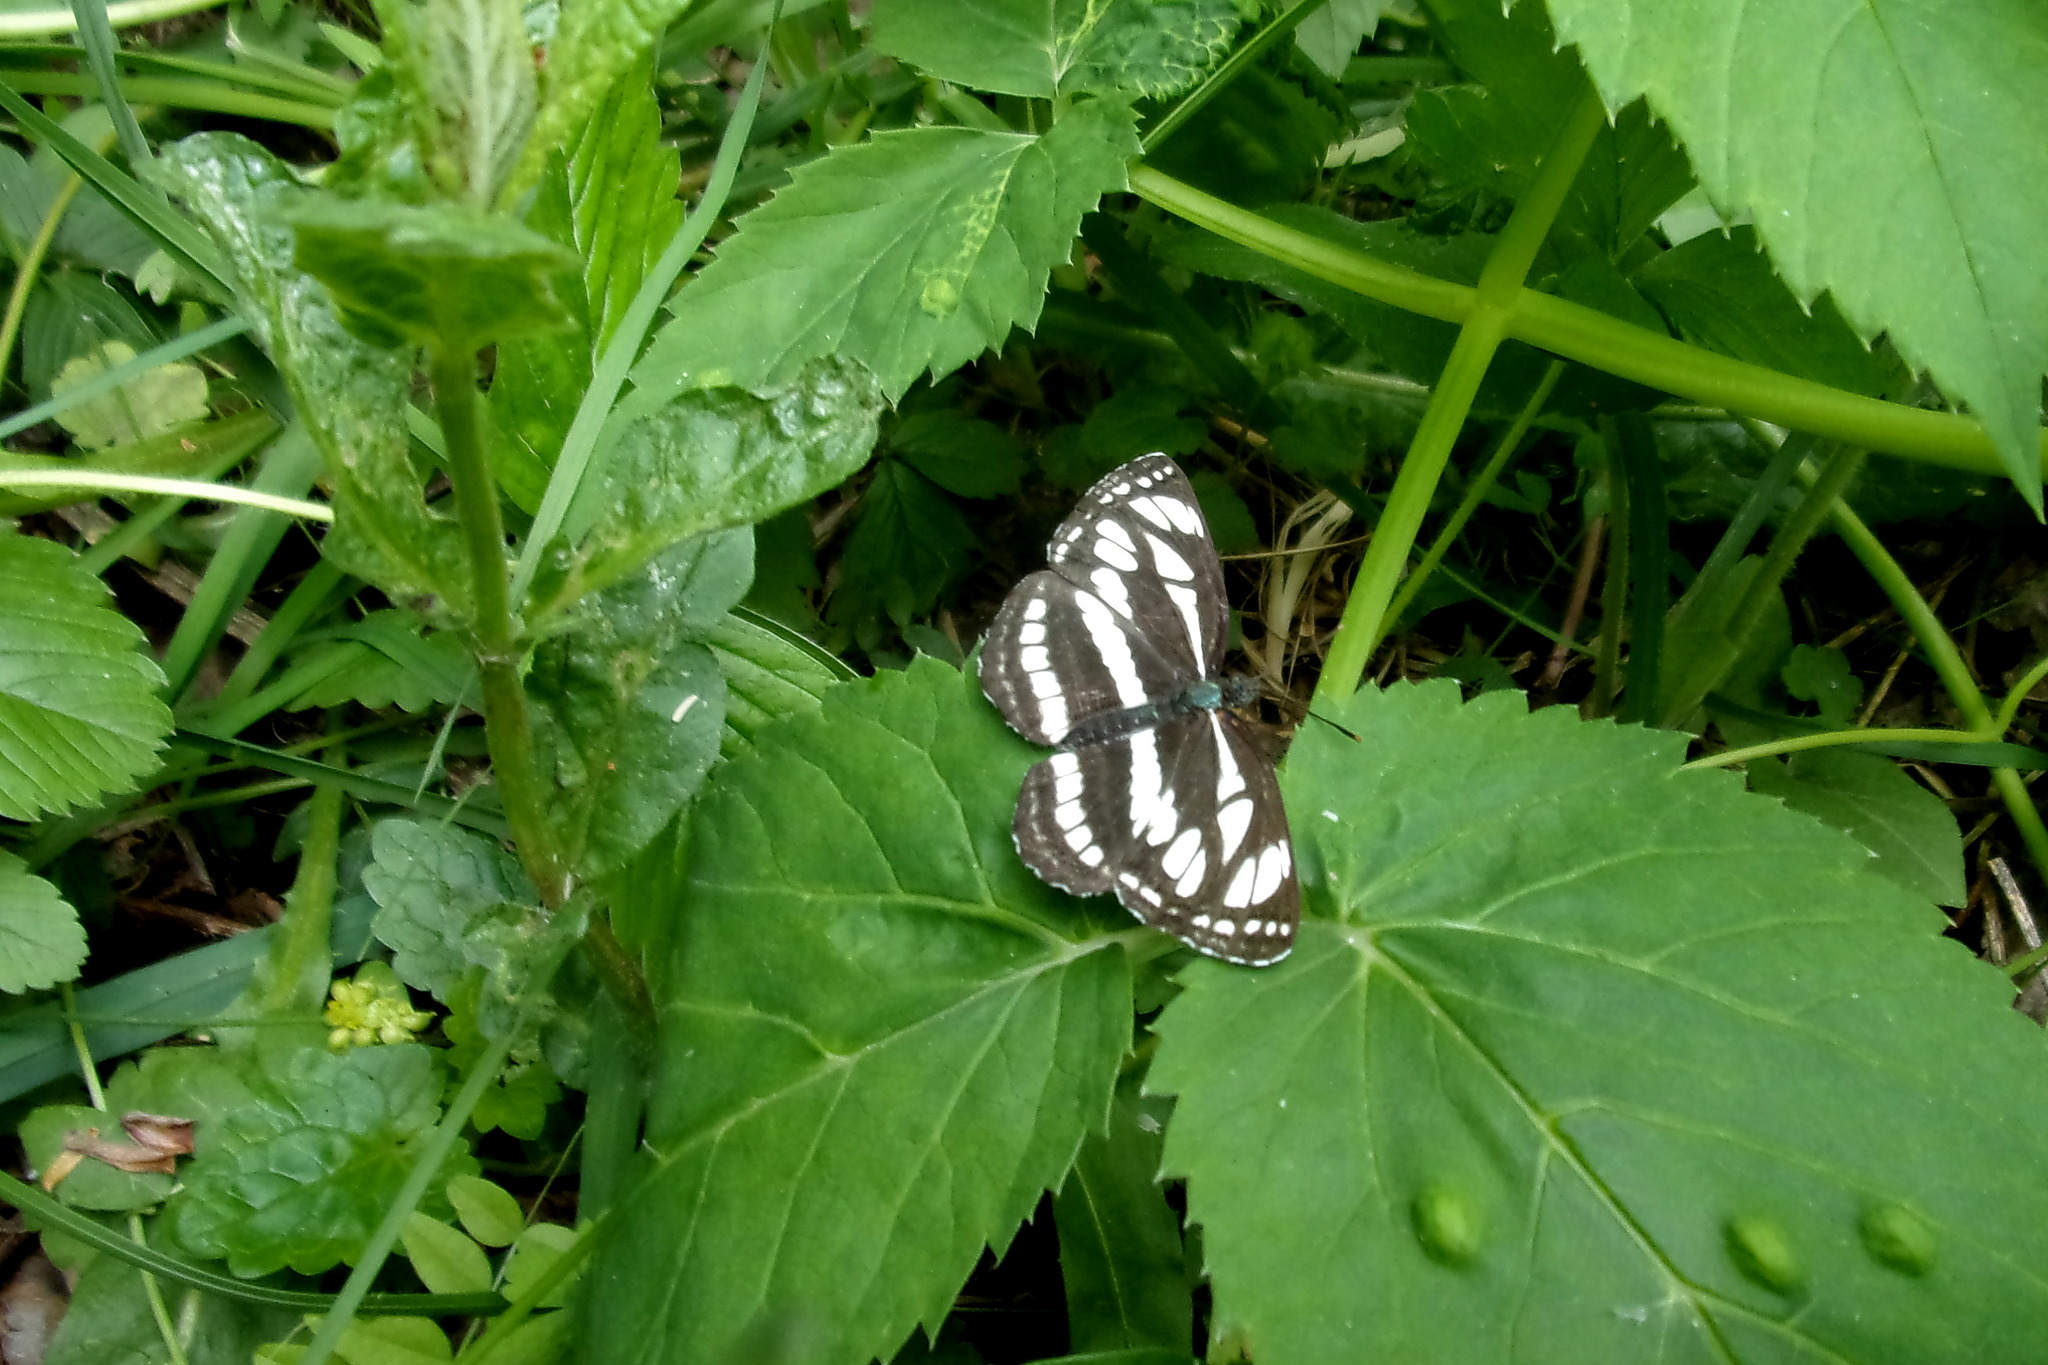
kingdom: Animalia
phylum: Arthropoda
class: Insecta
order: Lepidoptera
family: Nymphalidae
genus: Neptis
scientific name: Neptis sappho
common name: Common glider
